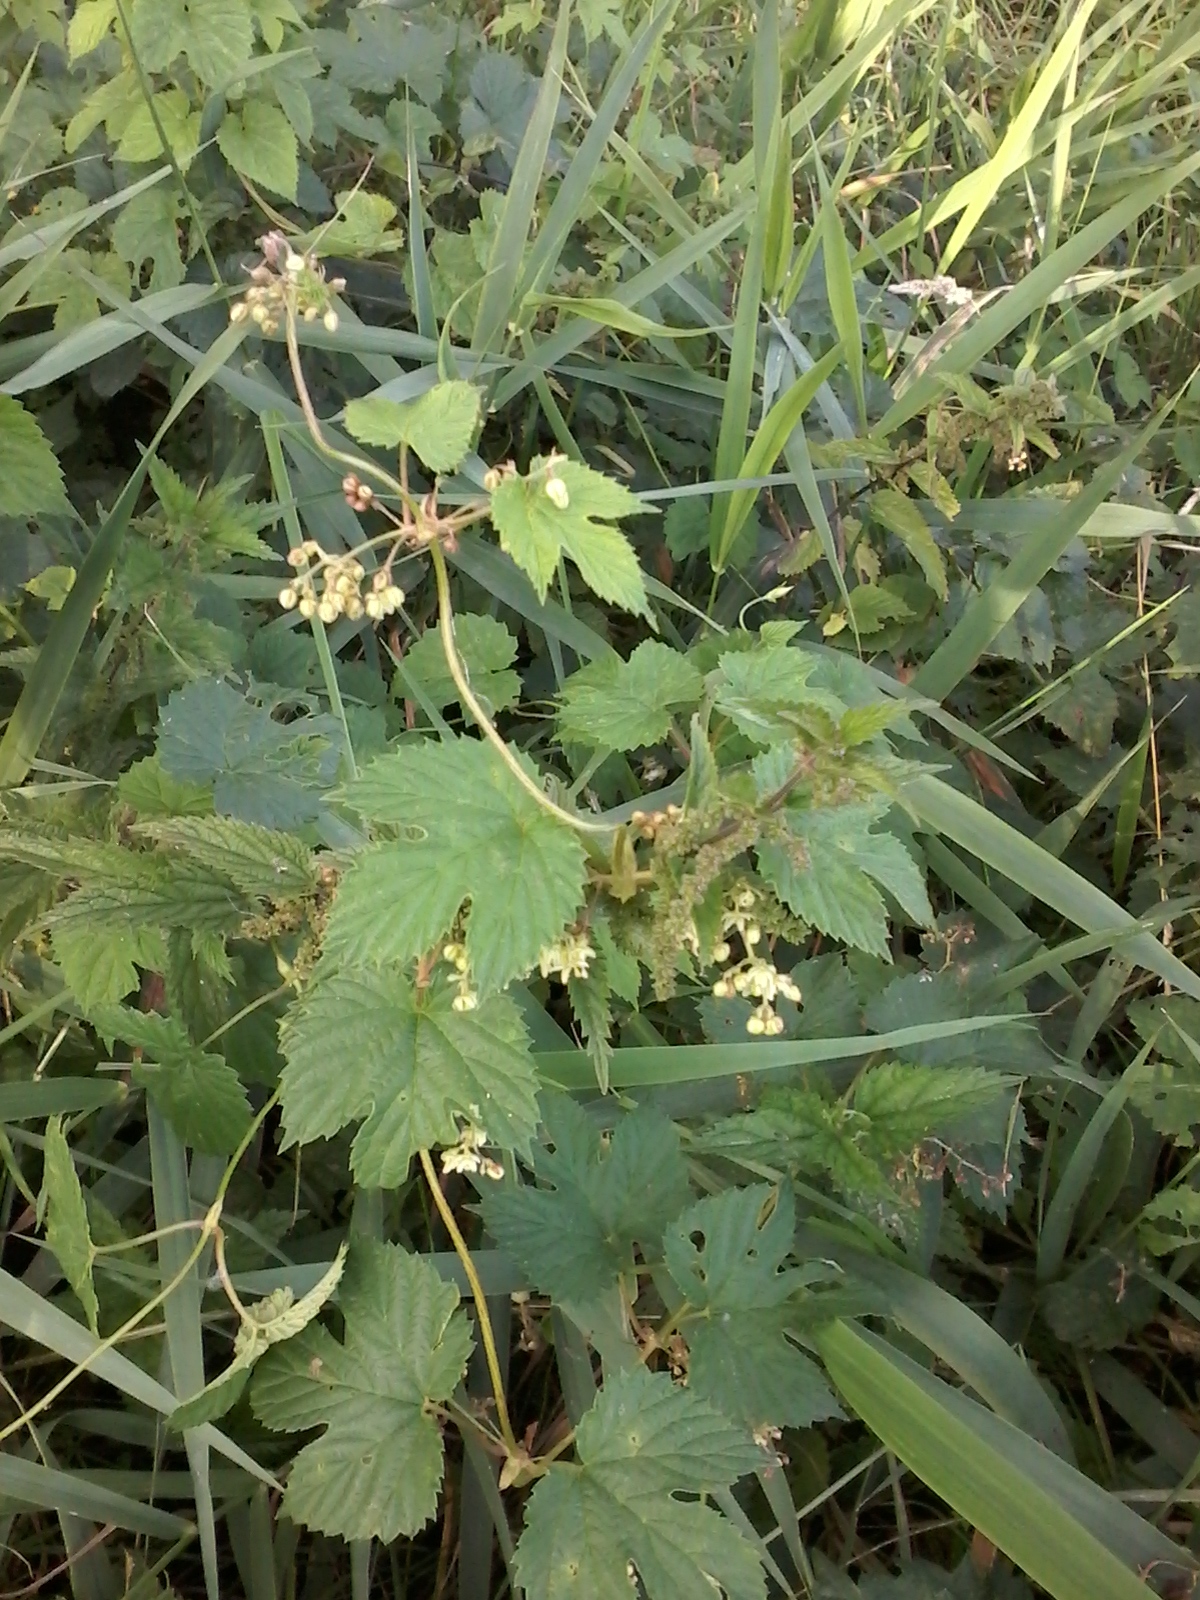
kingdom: Plantae
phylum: Tracheophyta
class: Magnoliopsida
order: Rosales
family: Cannabaceae
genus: Humulus
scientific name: Humulus lupulus
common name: Hop
